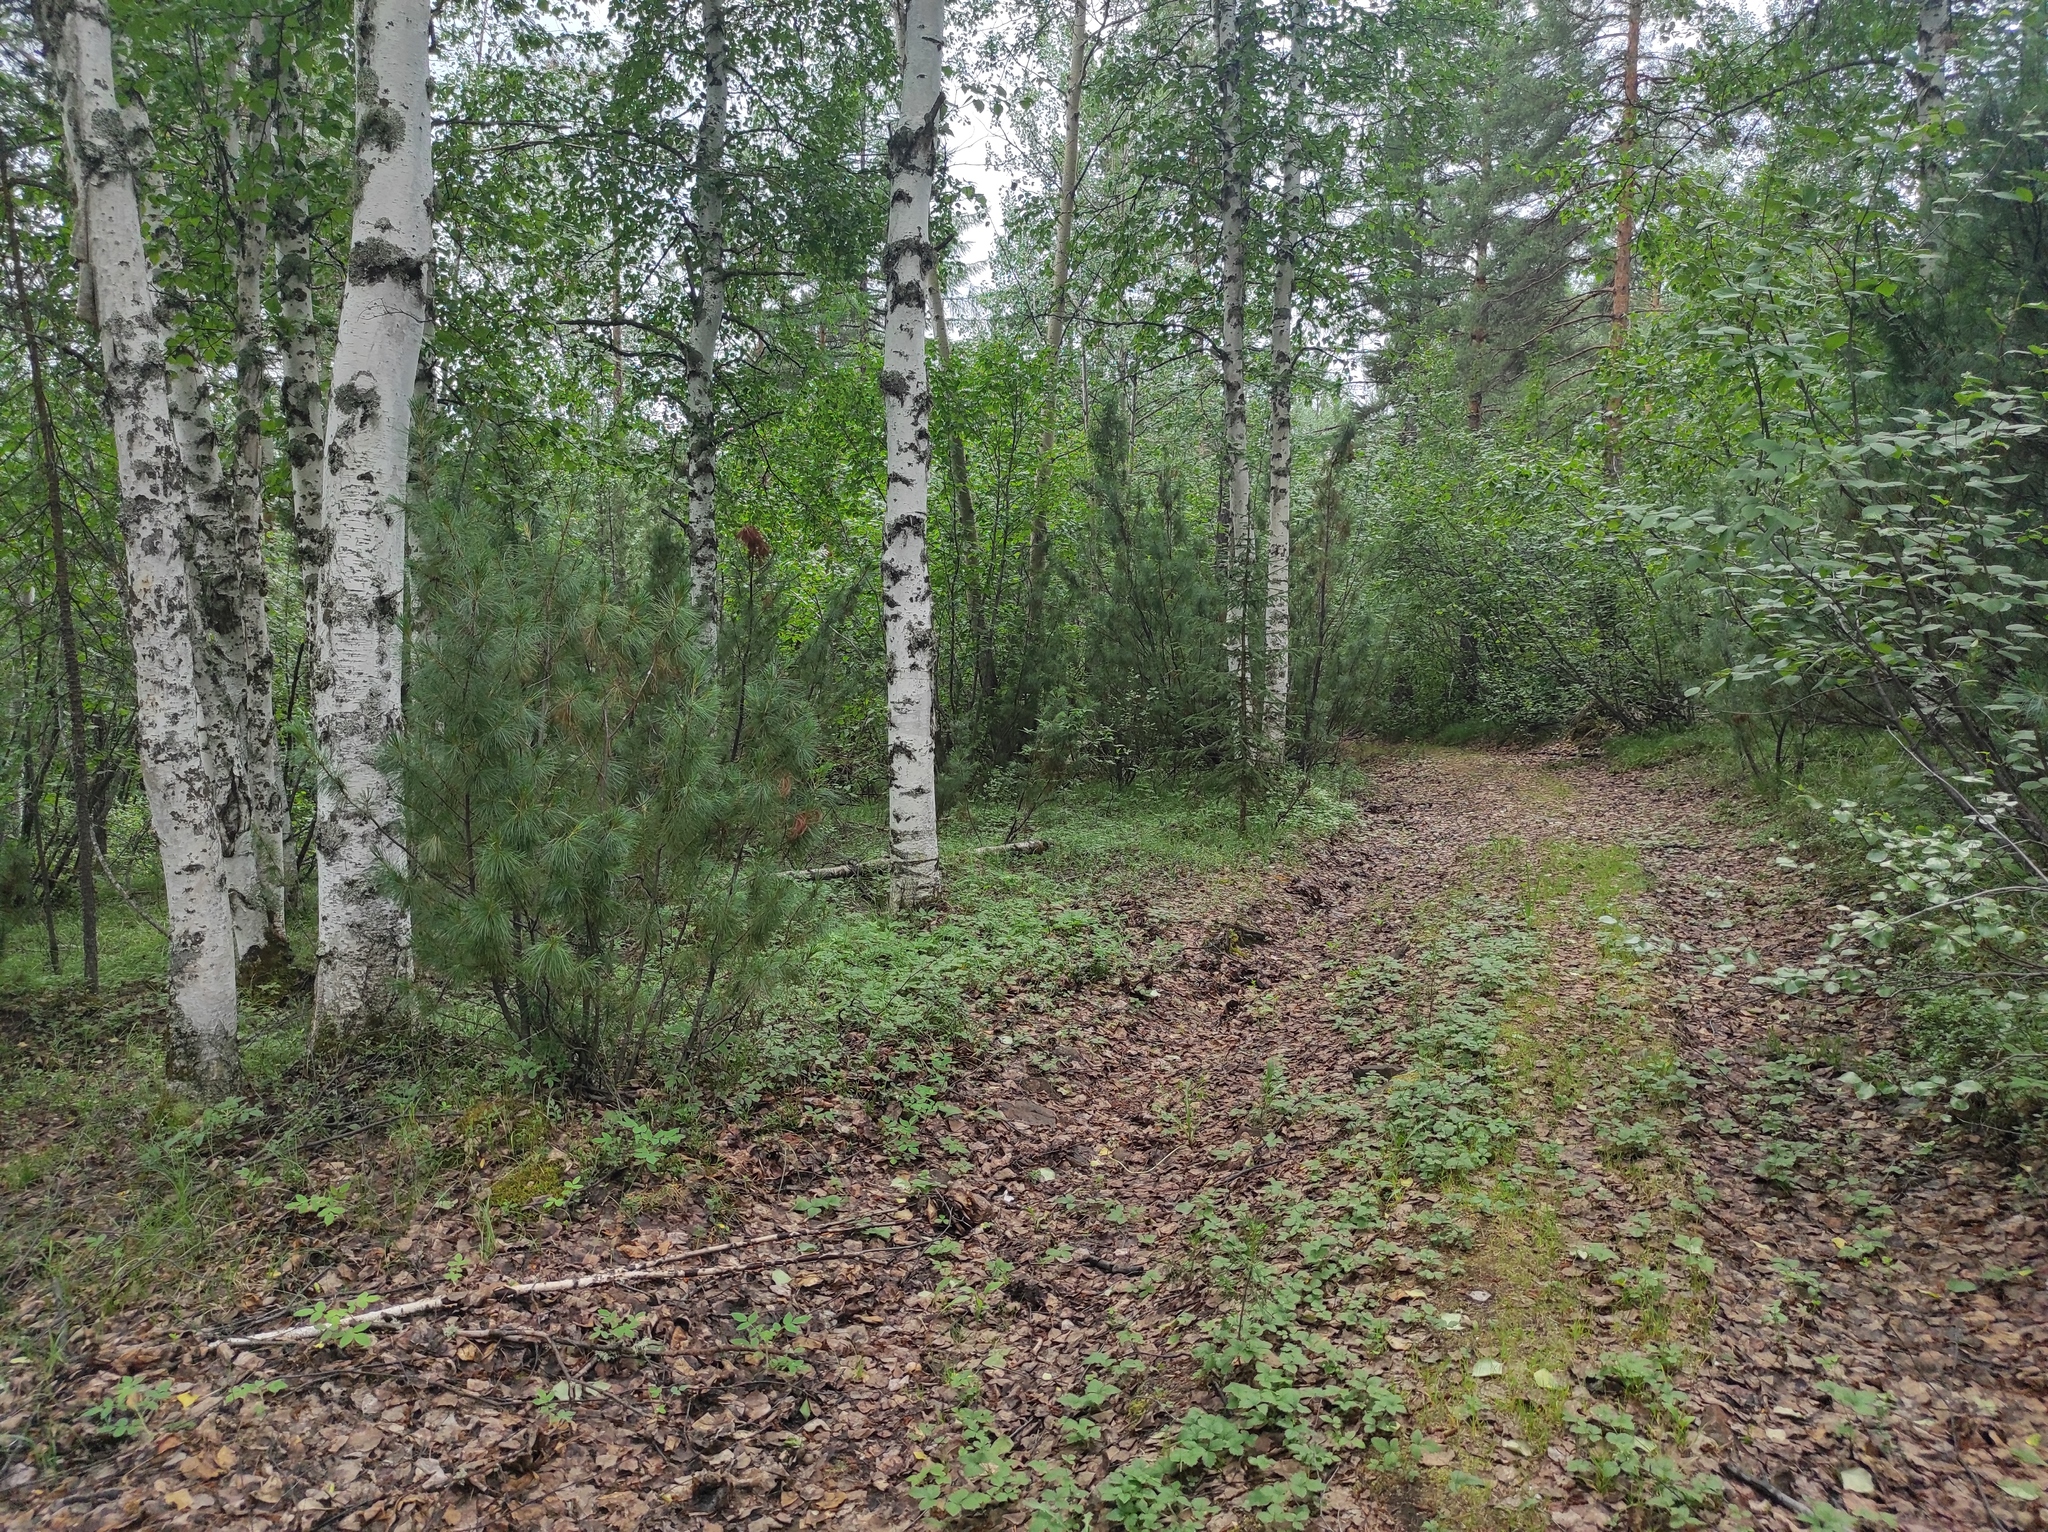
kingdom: Plantae
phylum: Tracheophyta
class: Pinopsida
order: Pinales
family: Pinaceae
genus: Pinus
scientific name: Pinus pumila
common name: Dwarf siberian pine
